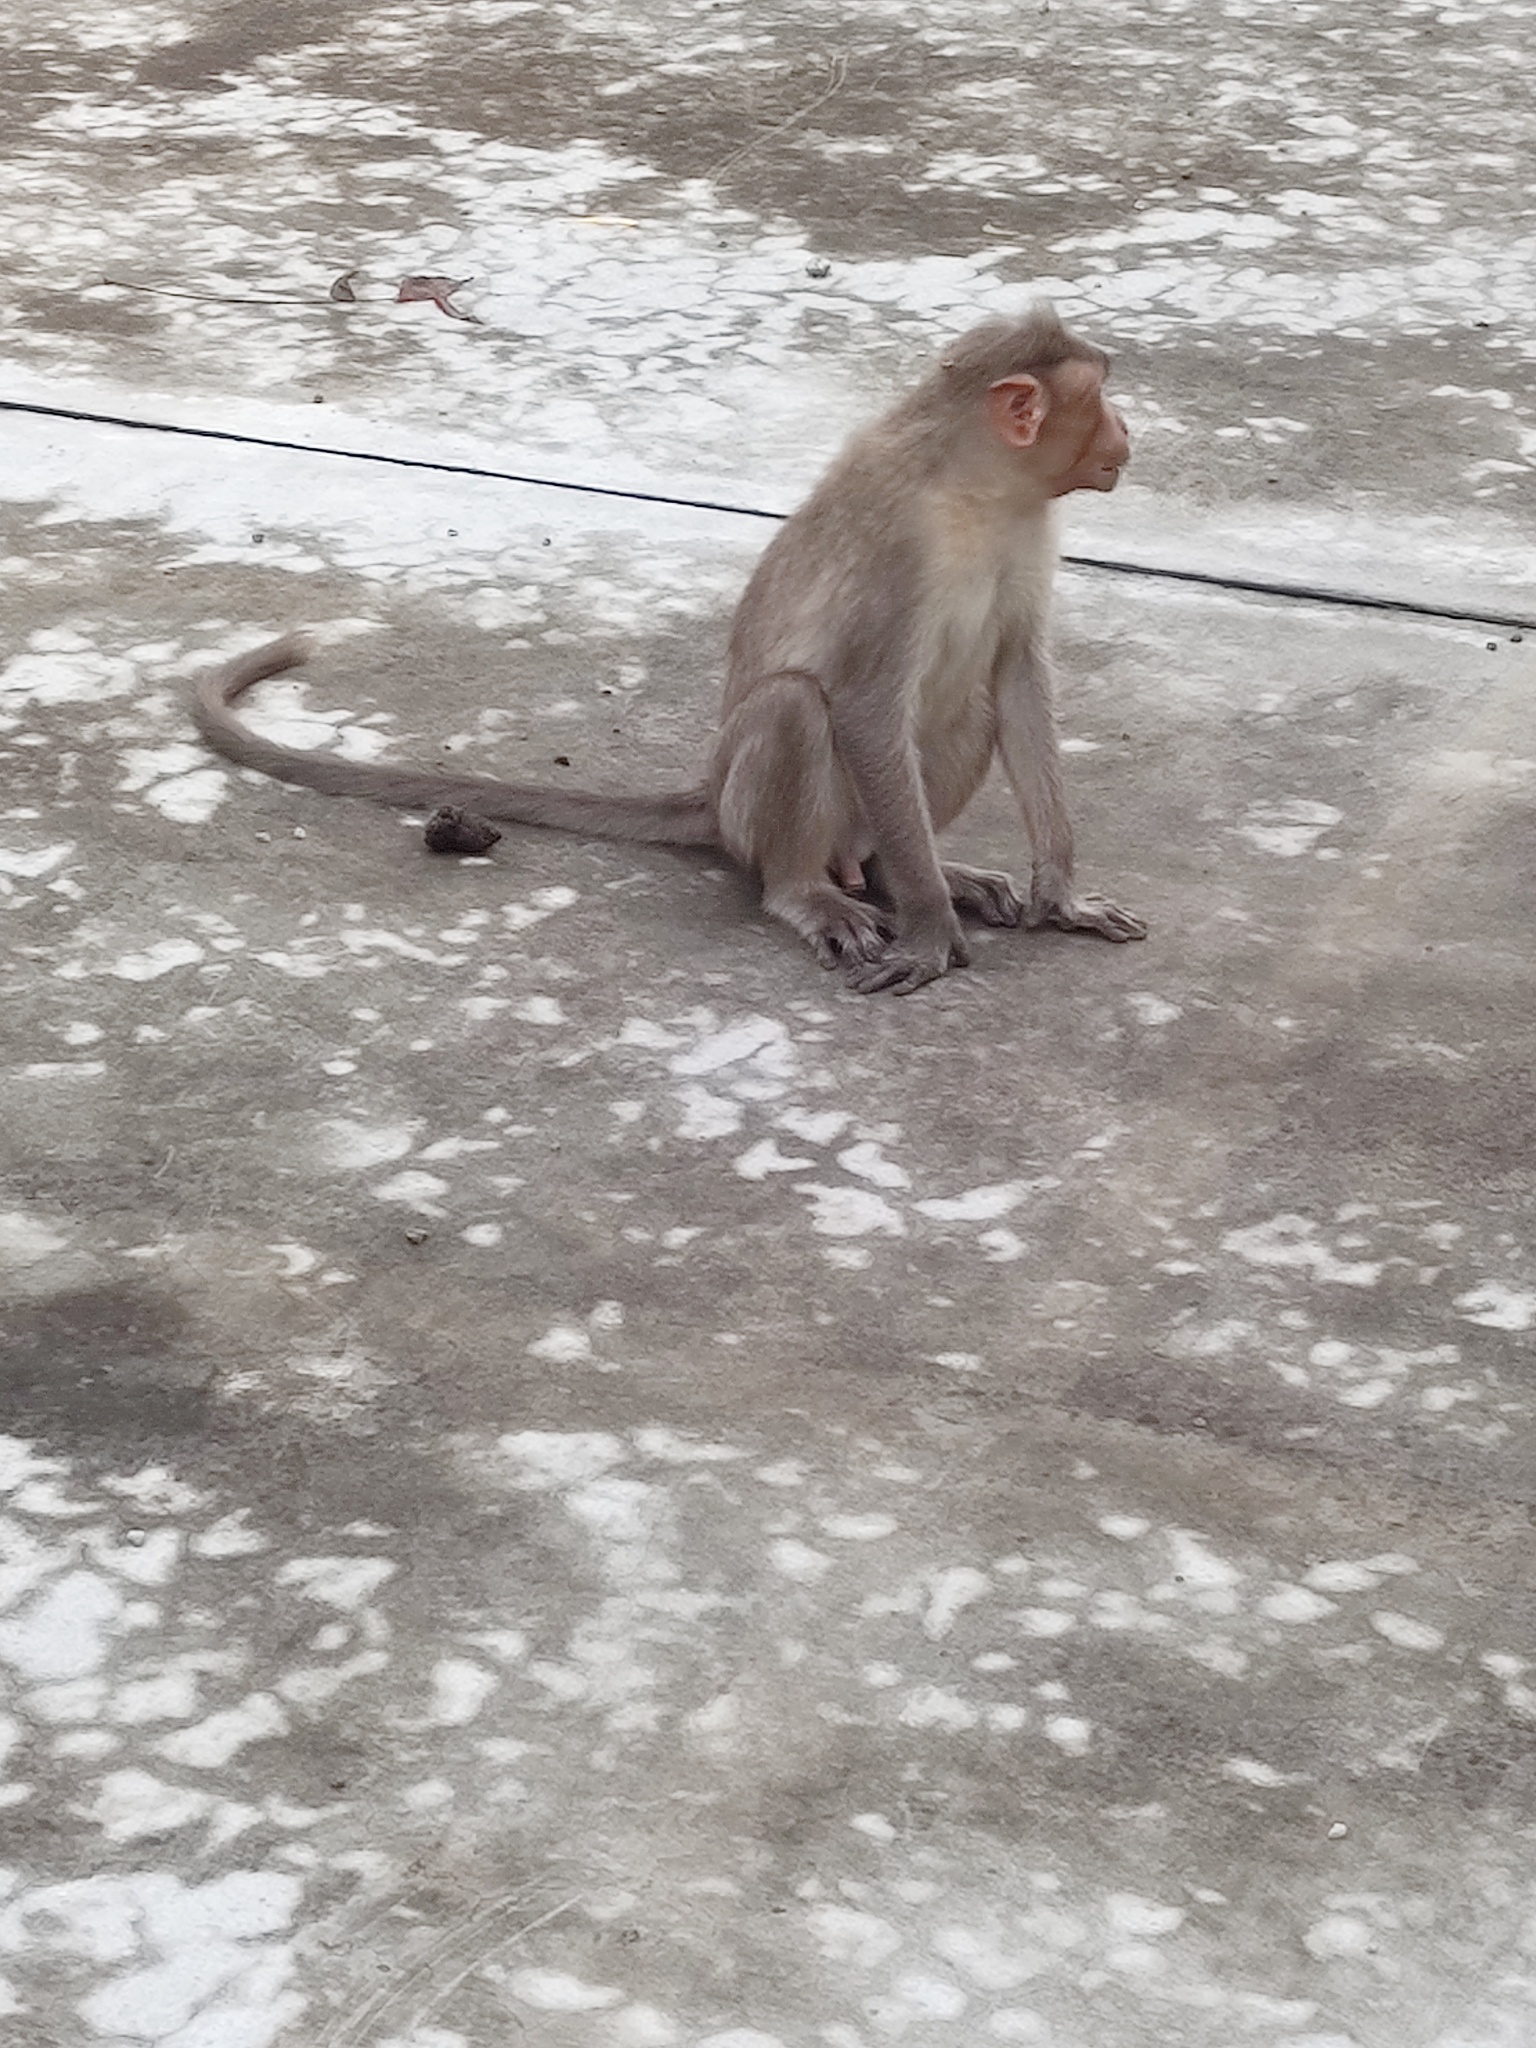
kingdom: Animalia
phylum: Chordata
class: Mammalia
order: Primates
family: Cercopithecidae
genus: Macaca
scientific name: Macaca radiata
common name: Bonnet macaque
